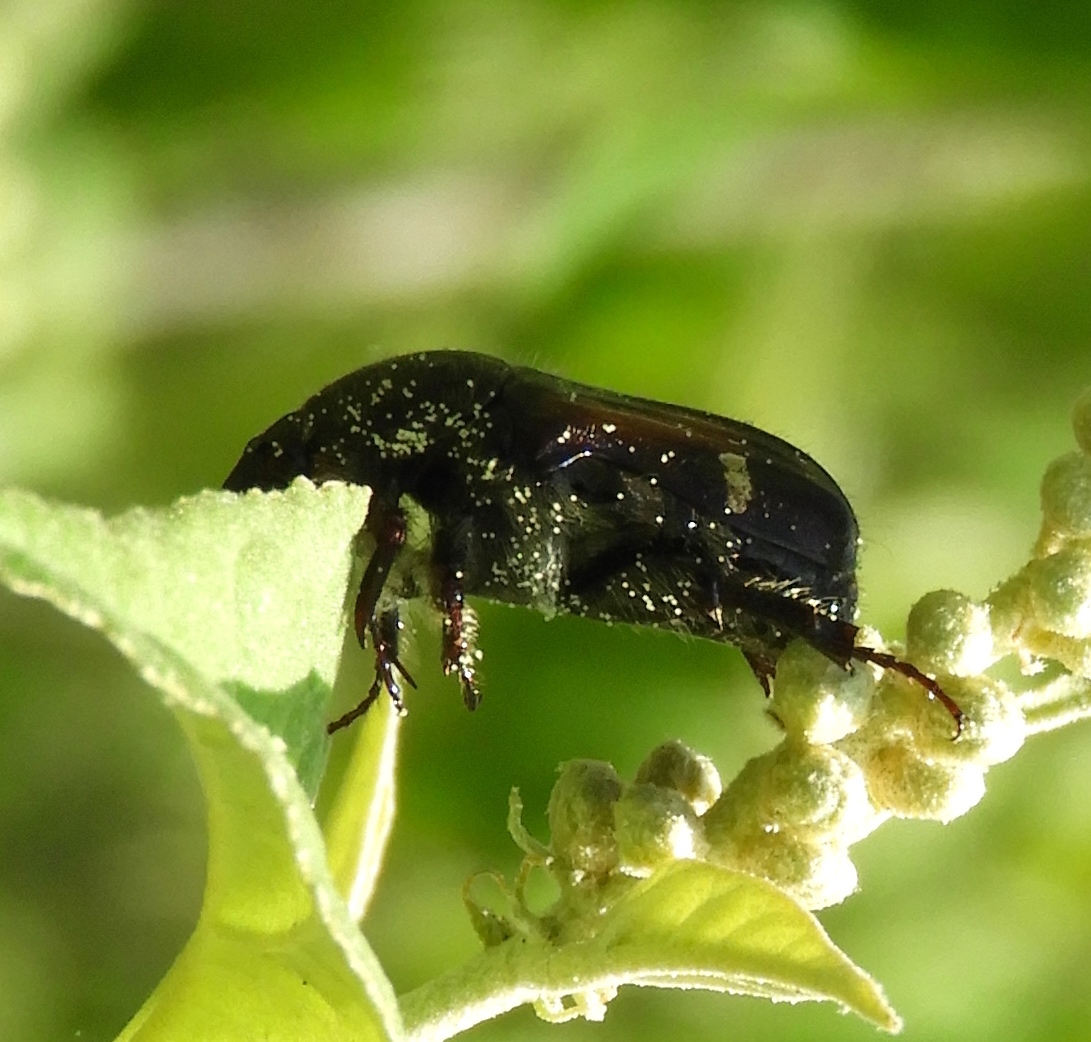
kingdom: Animalia
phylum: Arthropoda
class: Insecta
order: Coleoptera
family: Scarabaeidae
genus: Euphoria
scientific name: Euphoria pulchella
